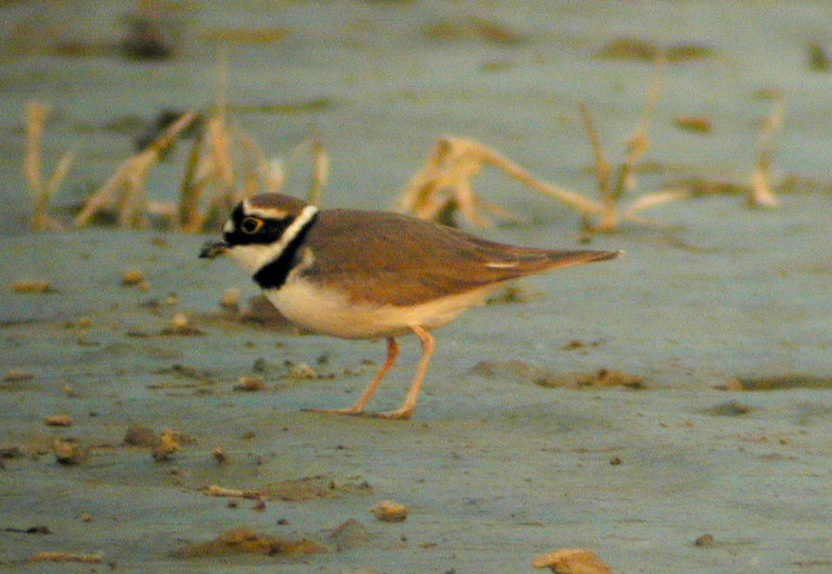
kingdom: Animalia
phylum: Chordata
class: Aves
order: Charadriiformes
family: Charadriidae
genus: Charadrius
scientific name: Charadrius dubius
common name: Little ringed plover
